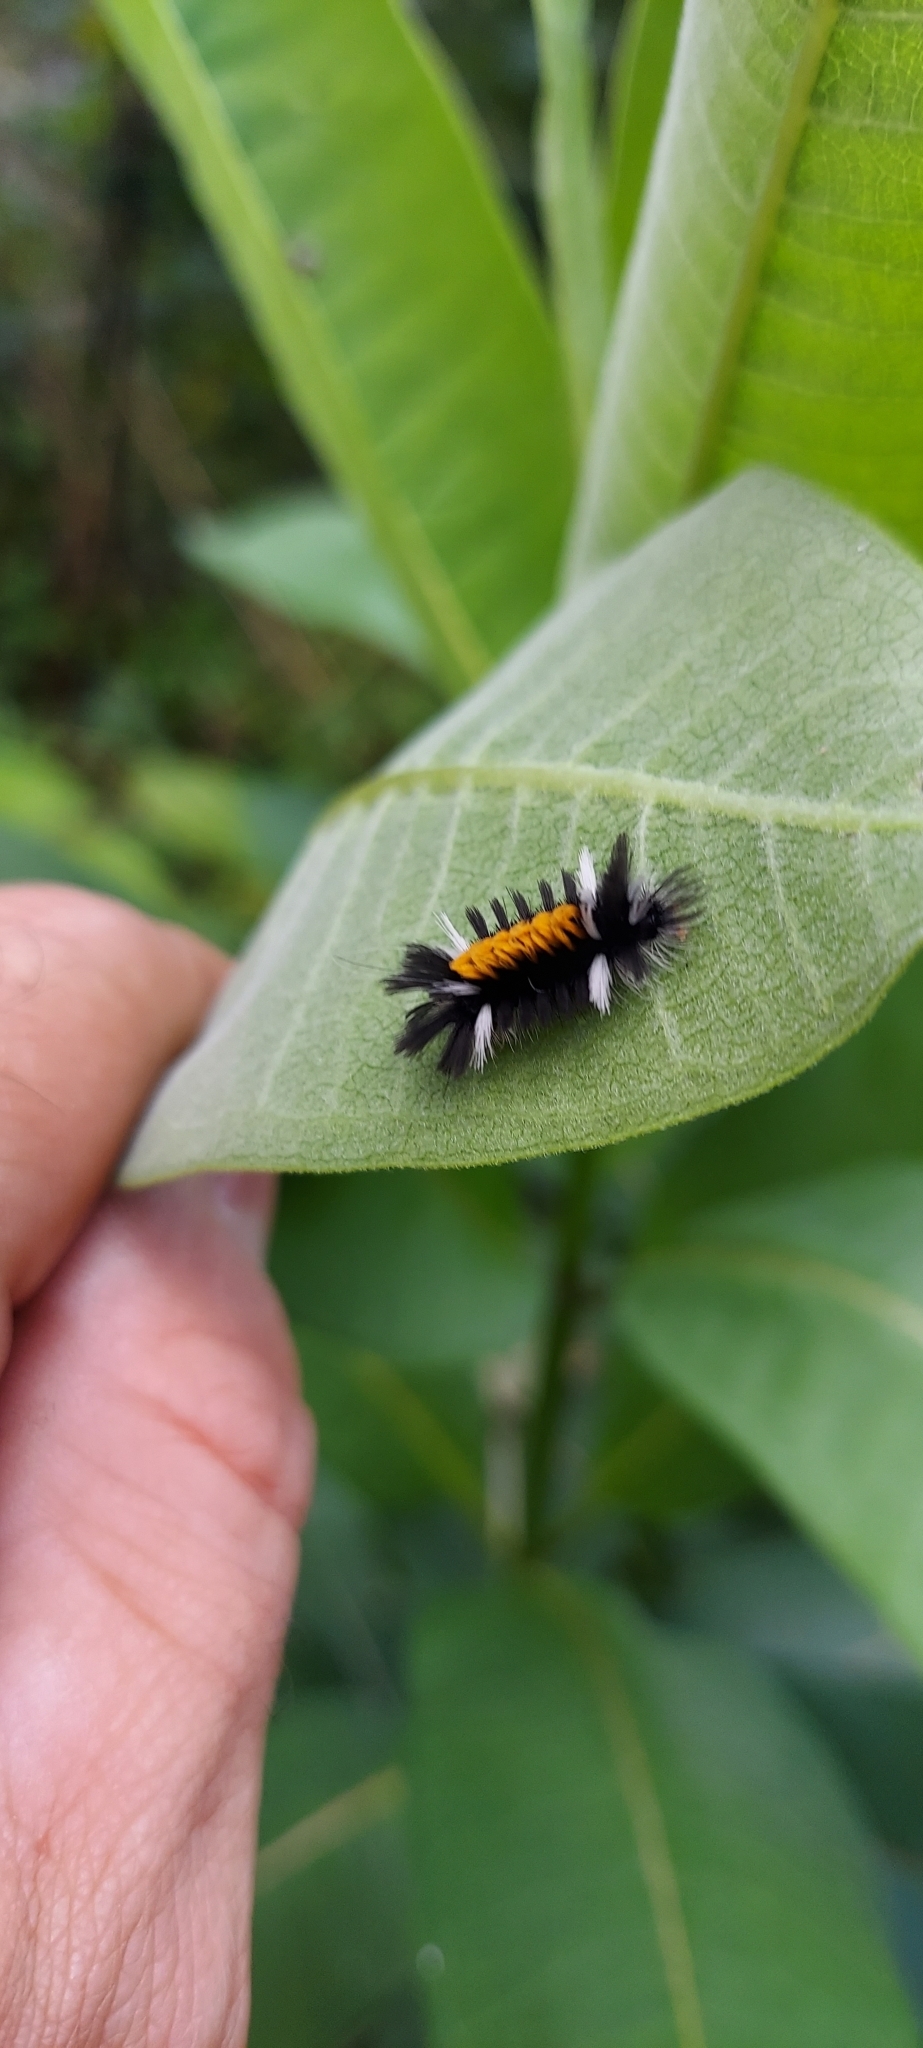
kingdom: Animalia
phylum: Arthropoda
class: Insecta
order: Lepidoptera
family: Erebidae
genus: Euchaetes
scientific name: Euchaetes egle
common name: Milkweed tussock moth
